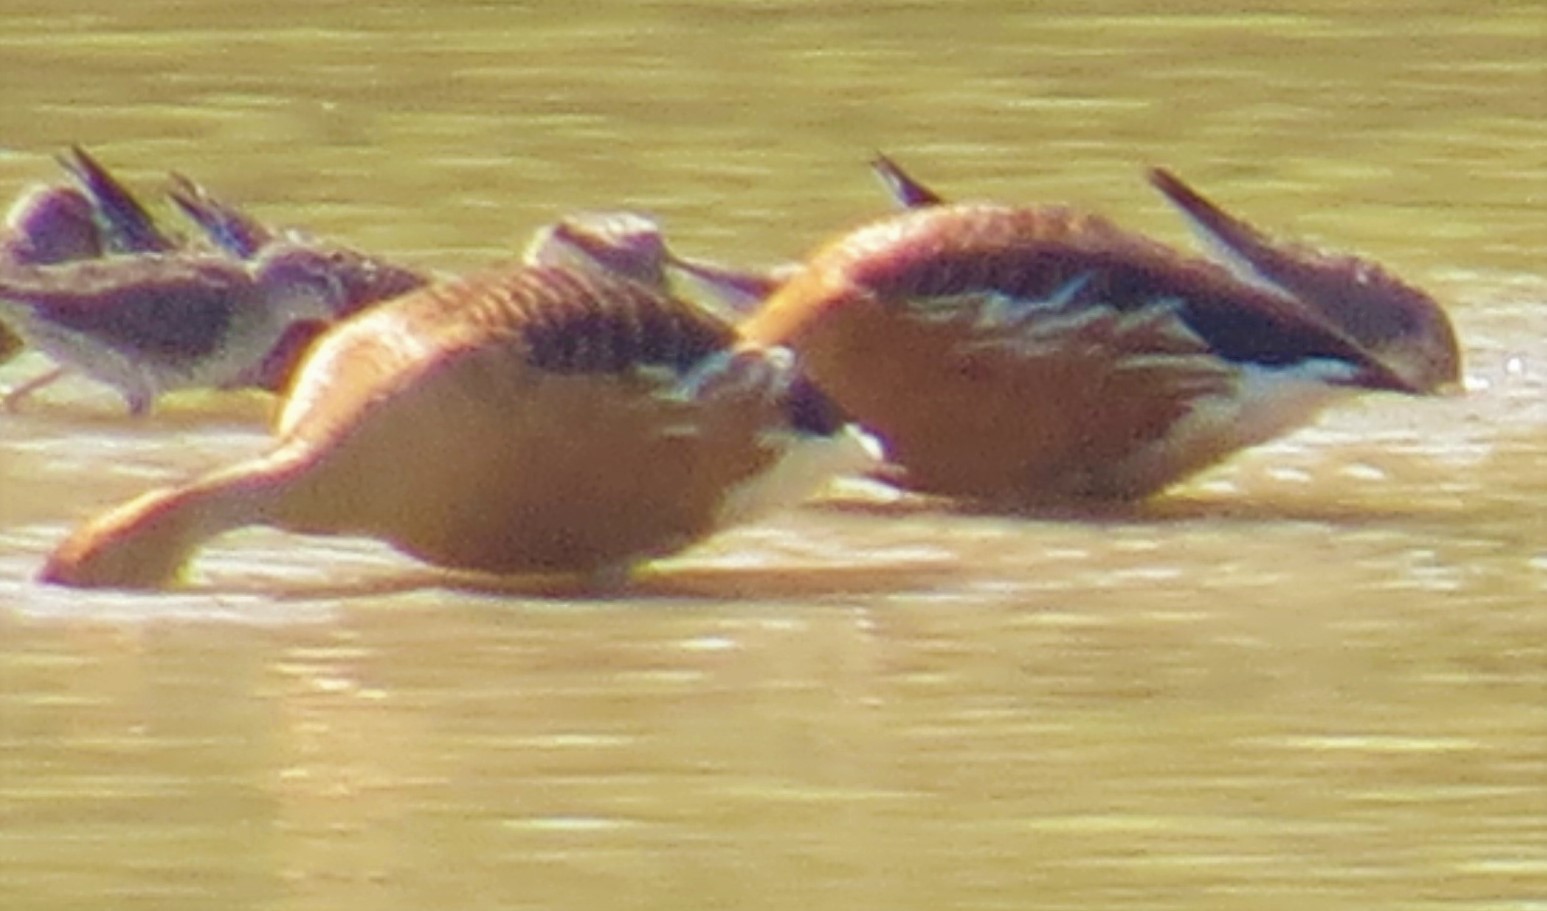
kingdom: Animalia
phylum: Chordata
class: Aves
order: Anseriformes
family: Anatidae
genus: Dendrocygna
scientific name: Dendrocygna bicolor
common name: Fulvous whistling duck
